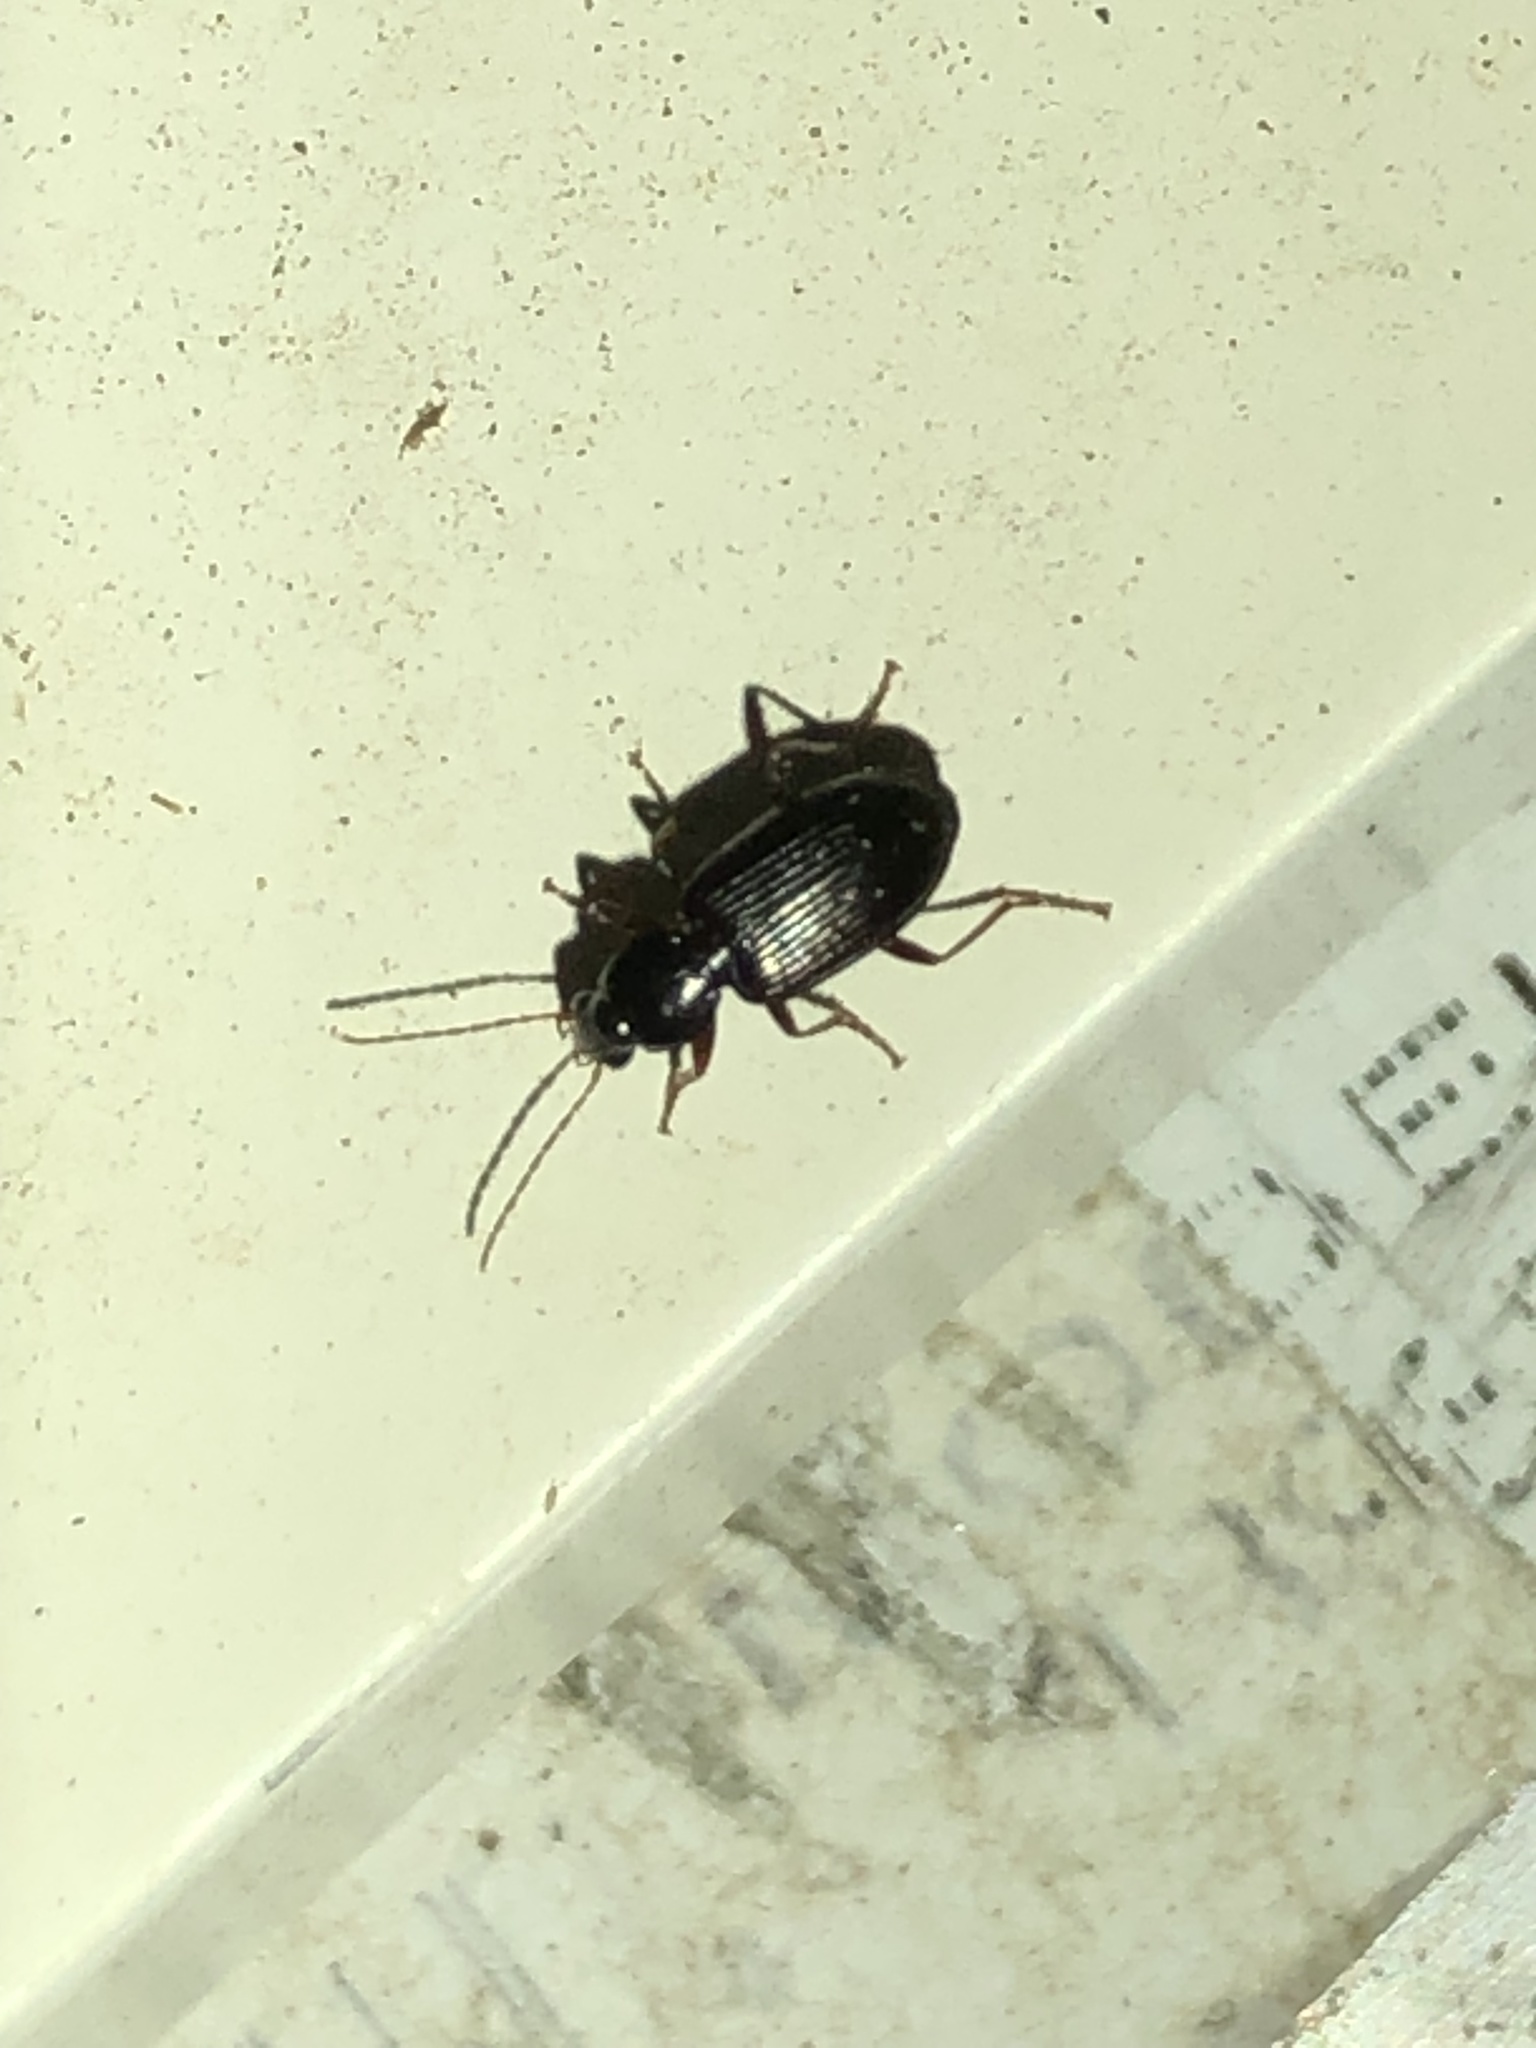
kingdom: Animalia
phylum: Arthropoda
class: Insecta
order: Coleoptera
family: Carabidae
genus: Agonum
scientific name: Agonum punctiforme
